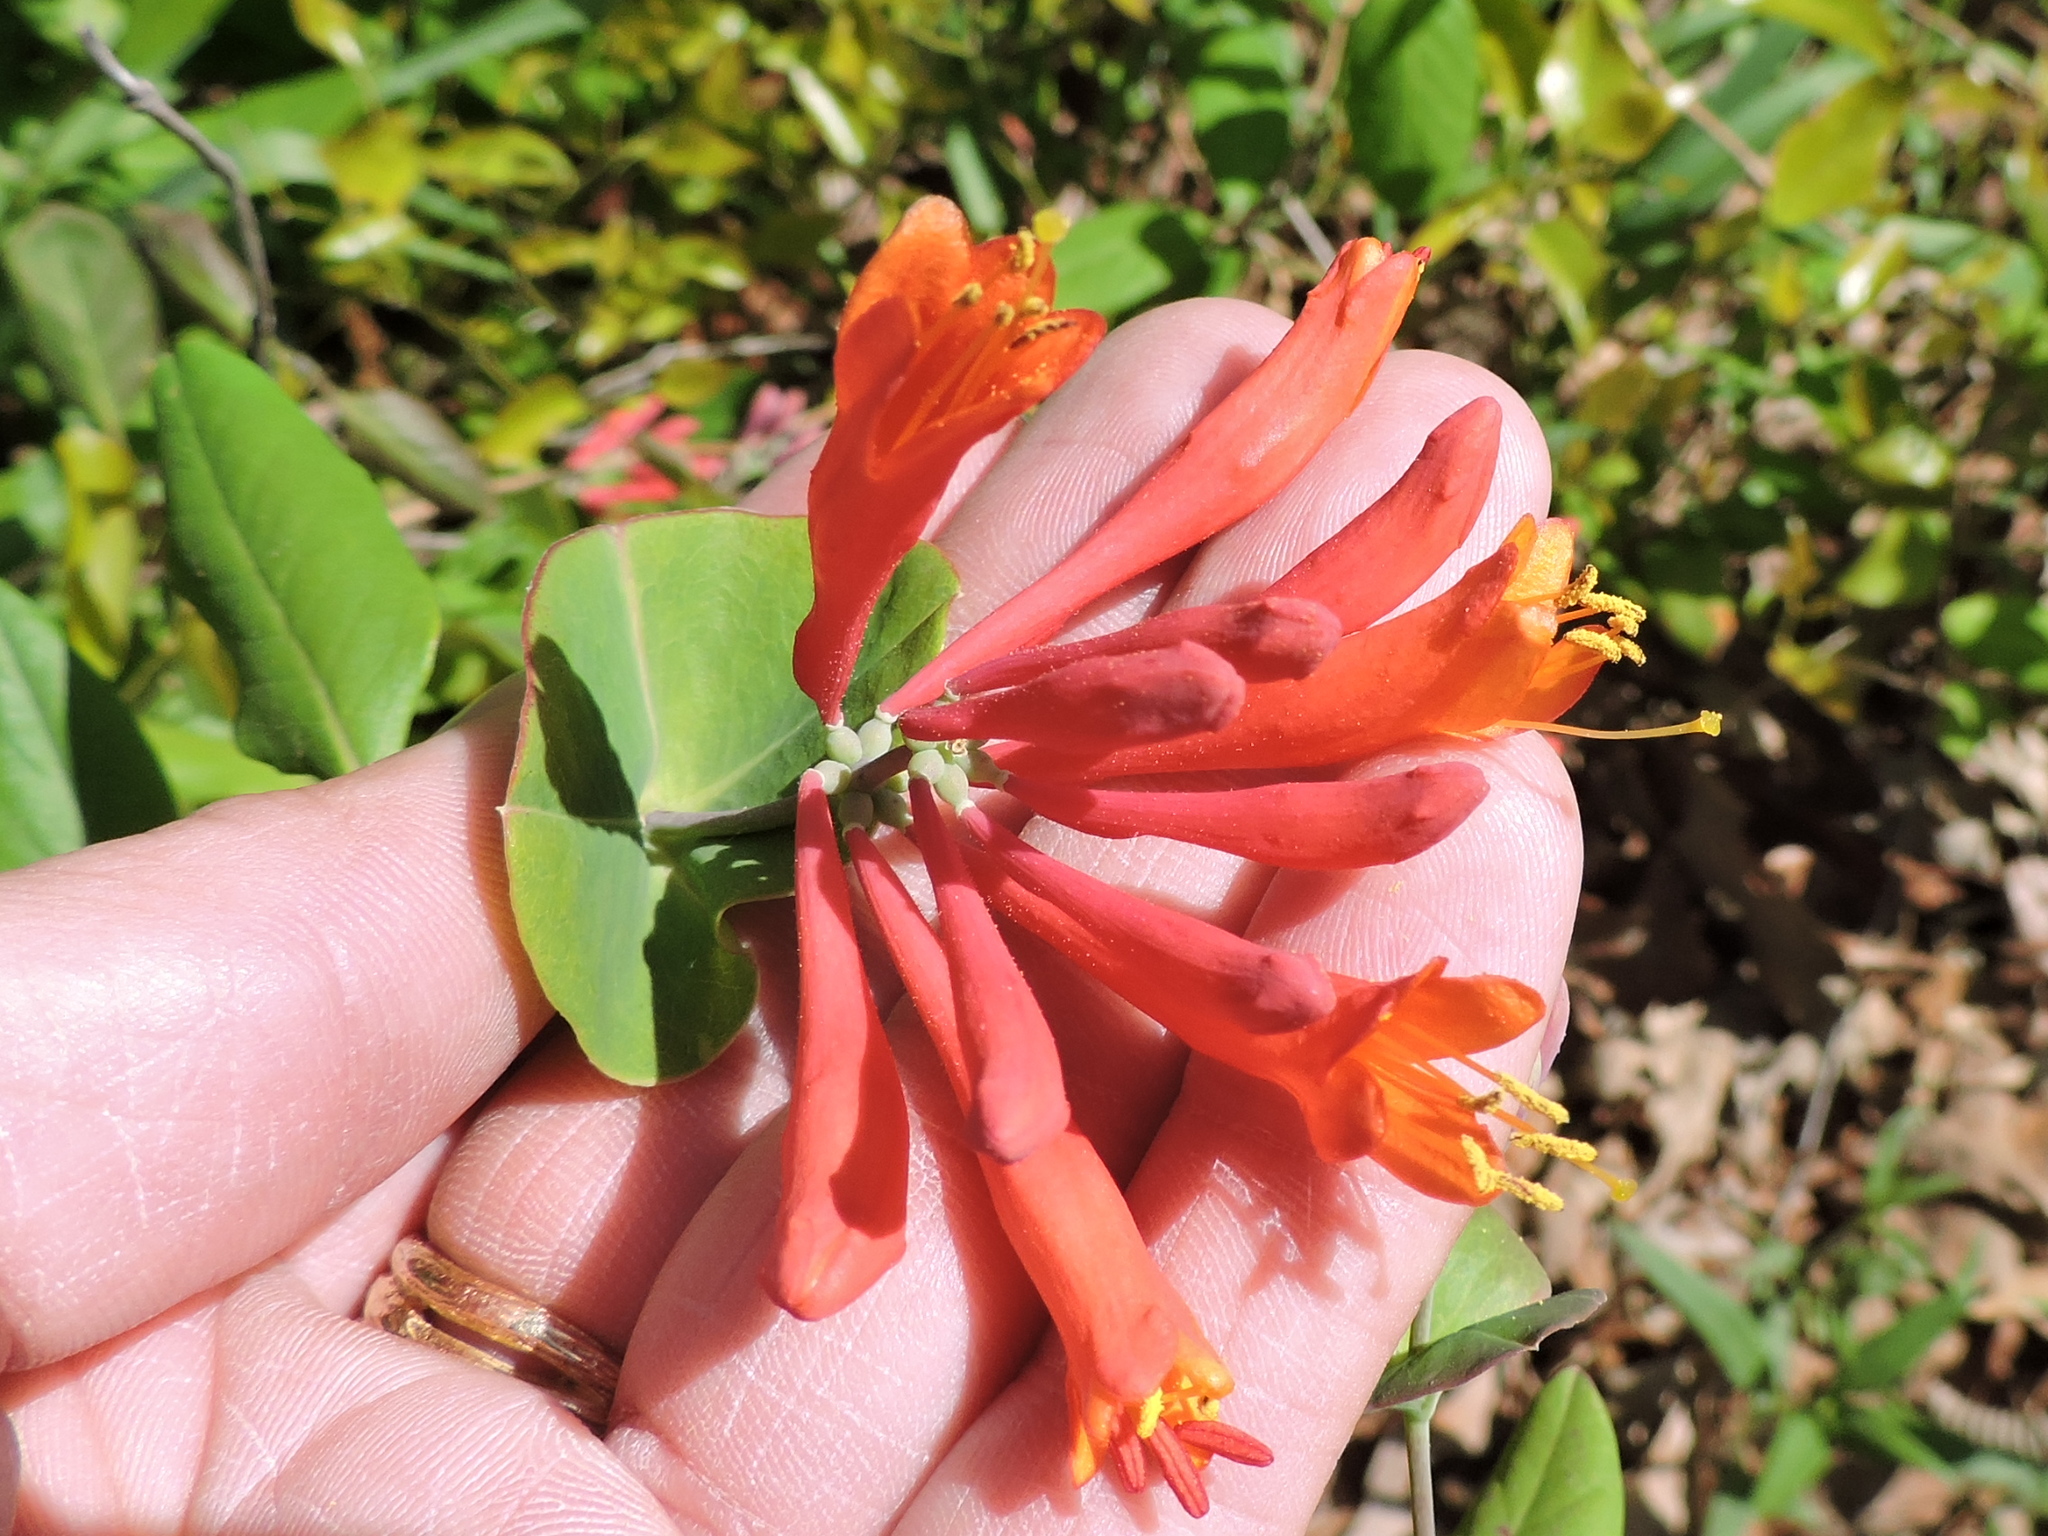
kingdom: Plantae
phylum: Tracheophyta
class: Magnoliopsida
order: Dipsacales
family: Caprifoliaceae
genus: Lonicera
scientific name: Lonicera sempervirens
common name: Coral honeysuckle
